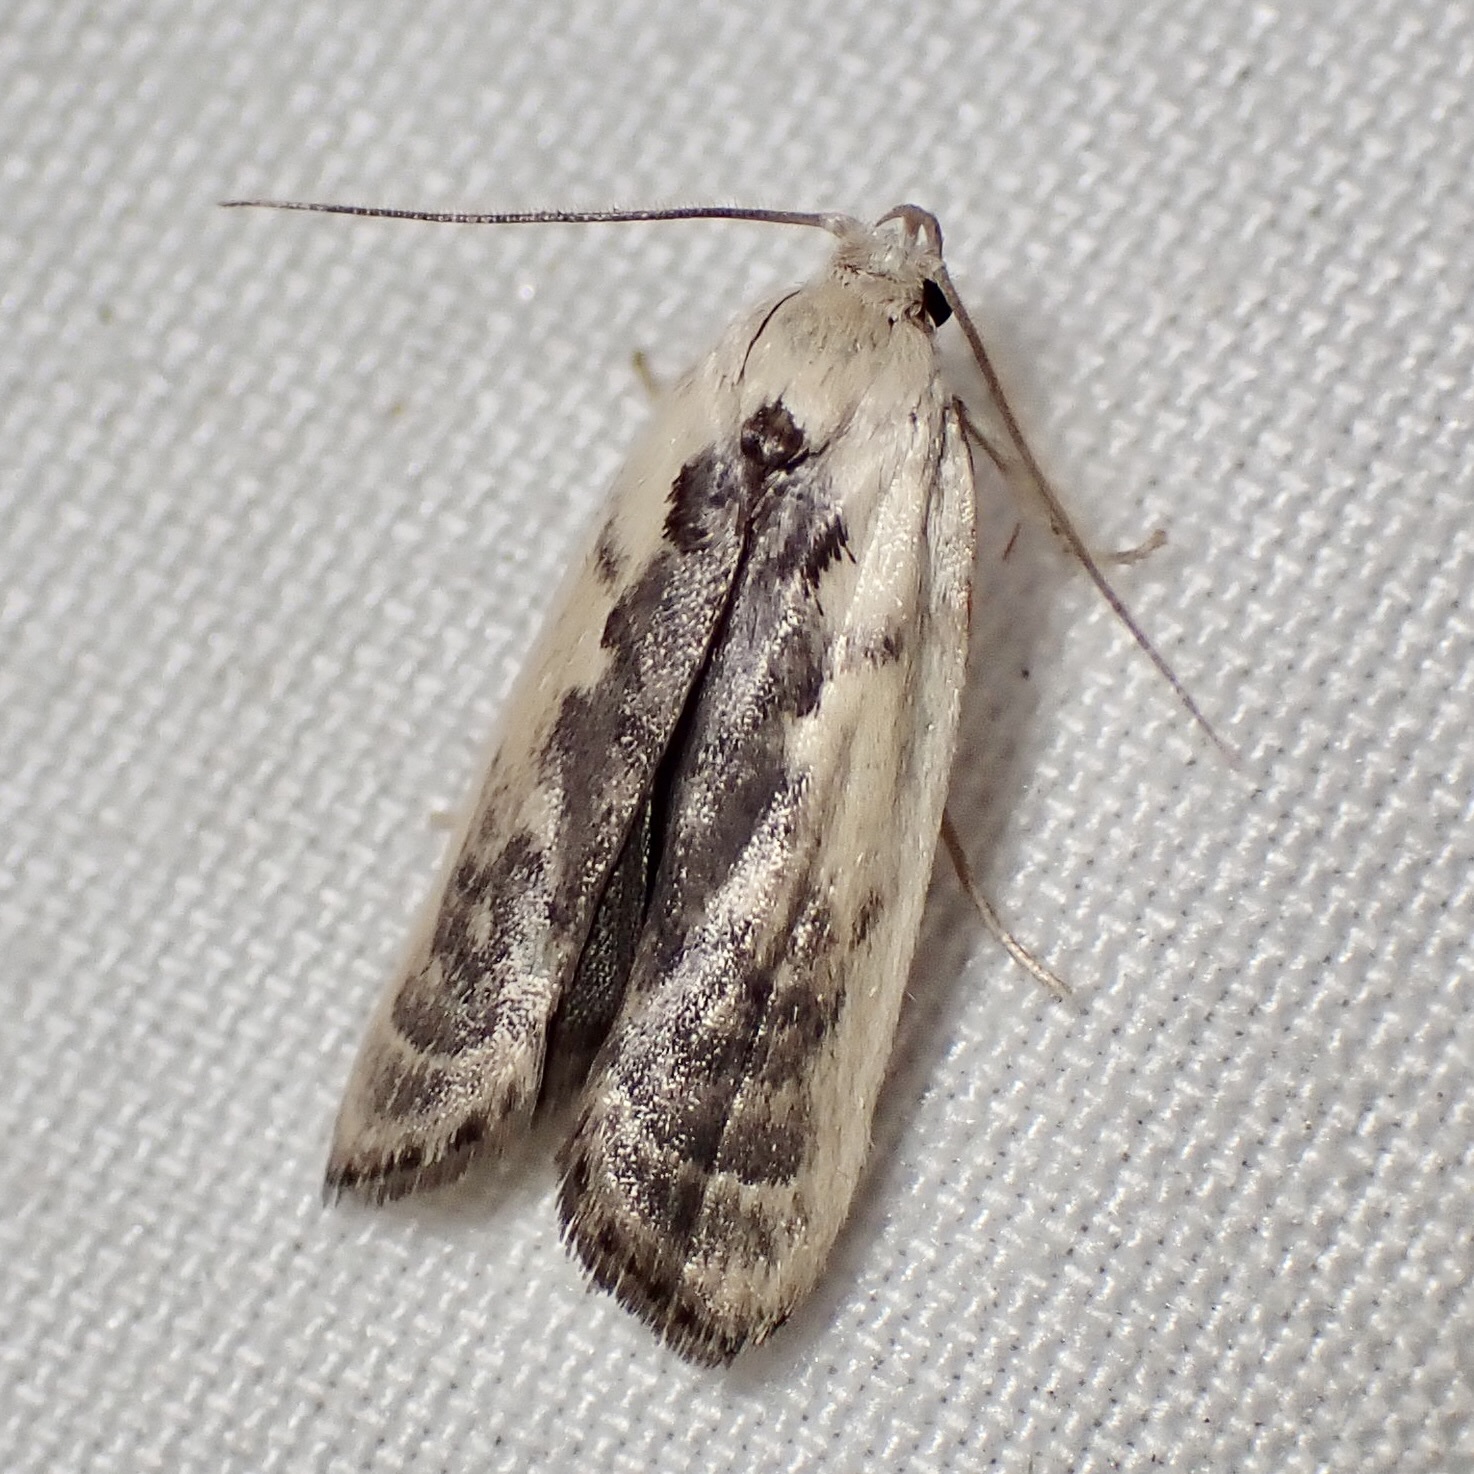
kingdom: Animalia
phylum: Arthropoda
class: Insecta
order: Lepidoptera
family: Depressariidae
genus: Antaeotricha
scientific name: Antaeotricha lindseyi
